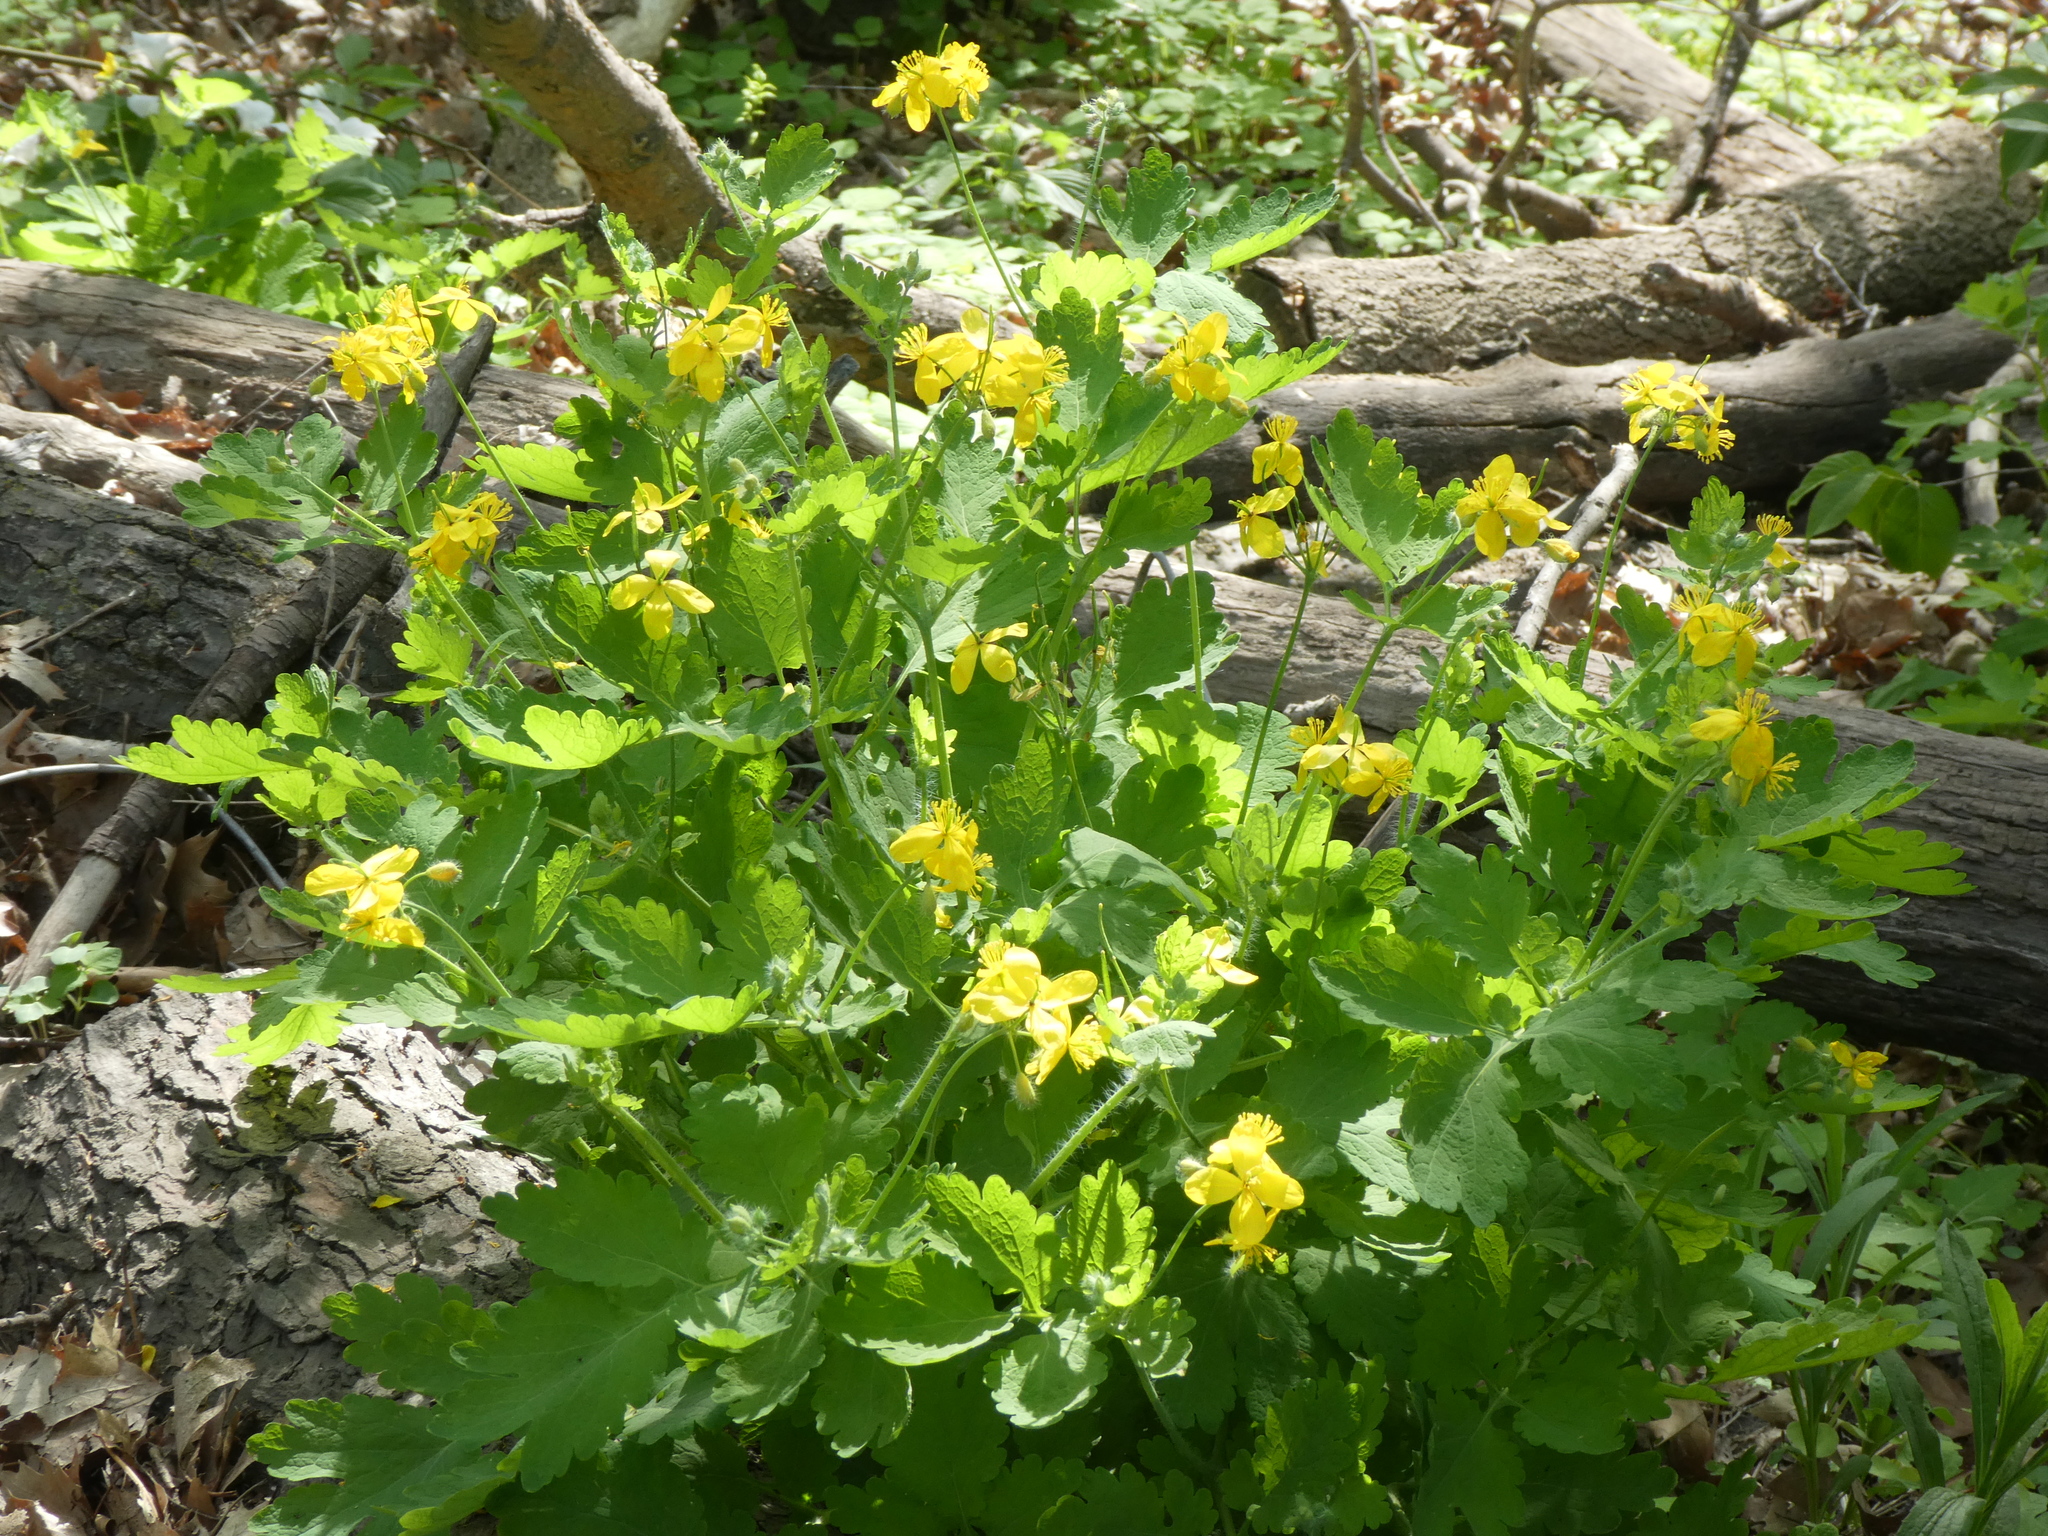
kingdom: Plantae
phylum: Tracheophyta
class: Magnoliopsida
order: Ranunculales
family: Papaveraceae
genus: Chelidonium
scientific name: Chelidonium majus
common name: Greater celandine
